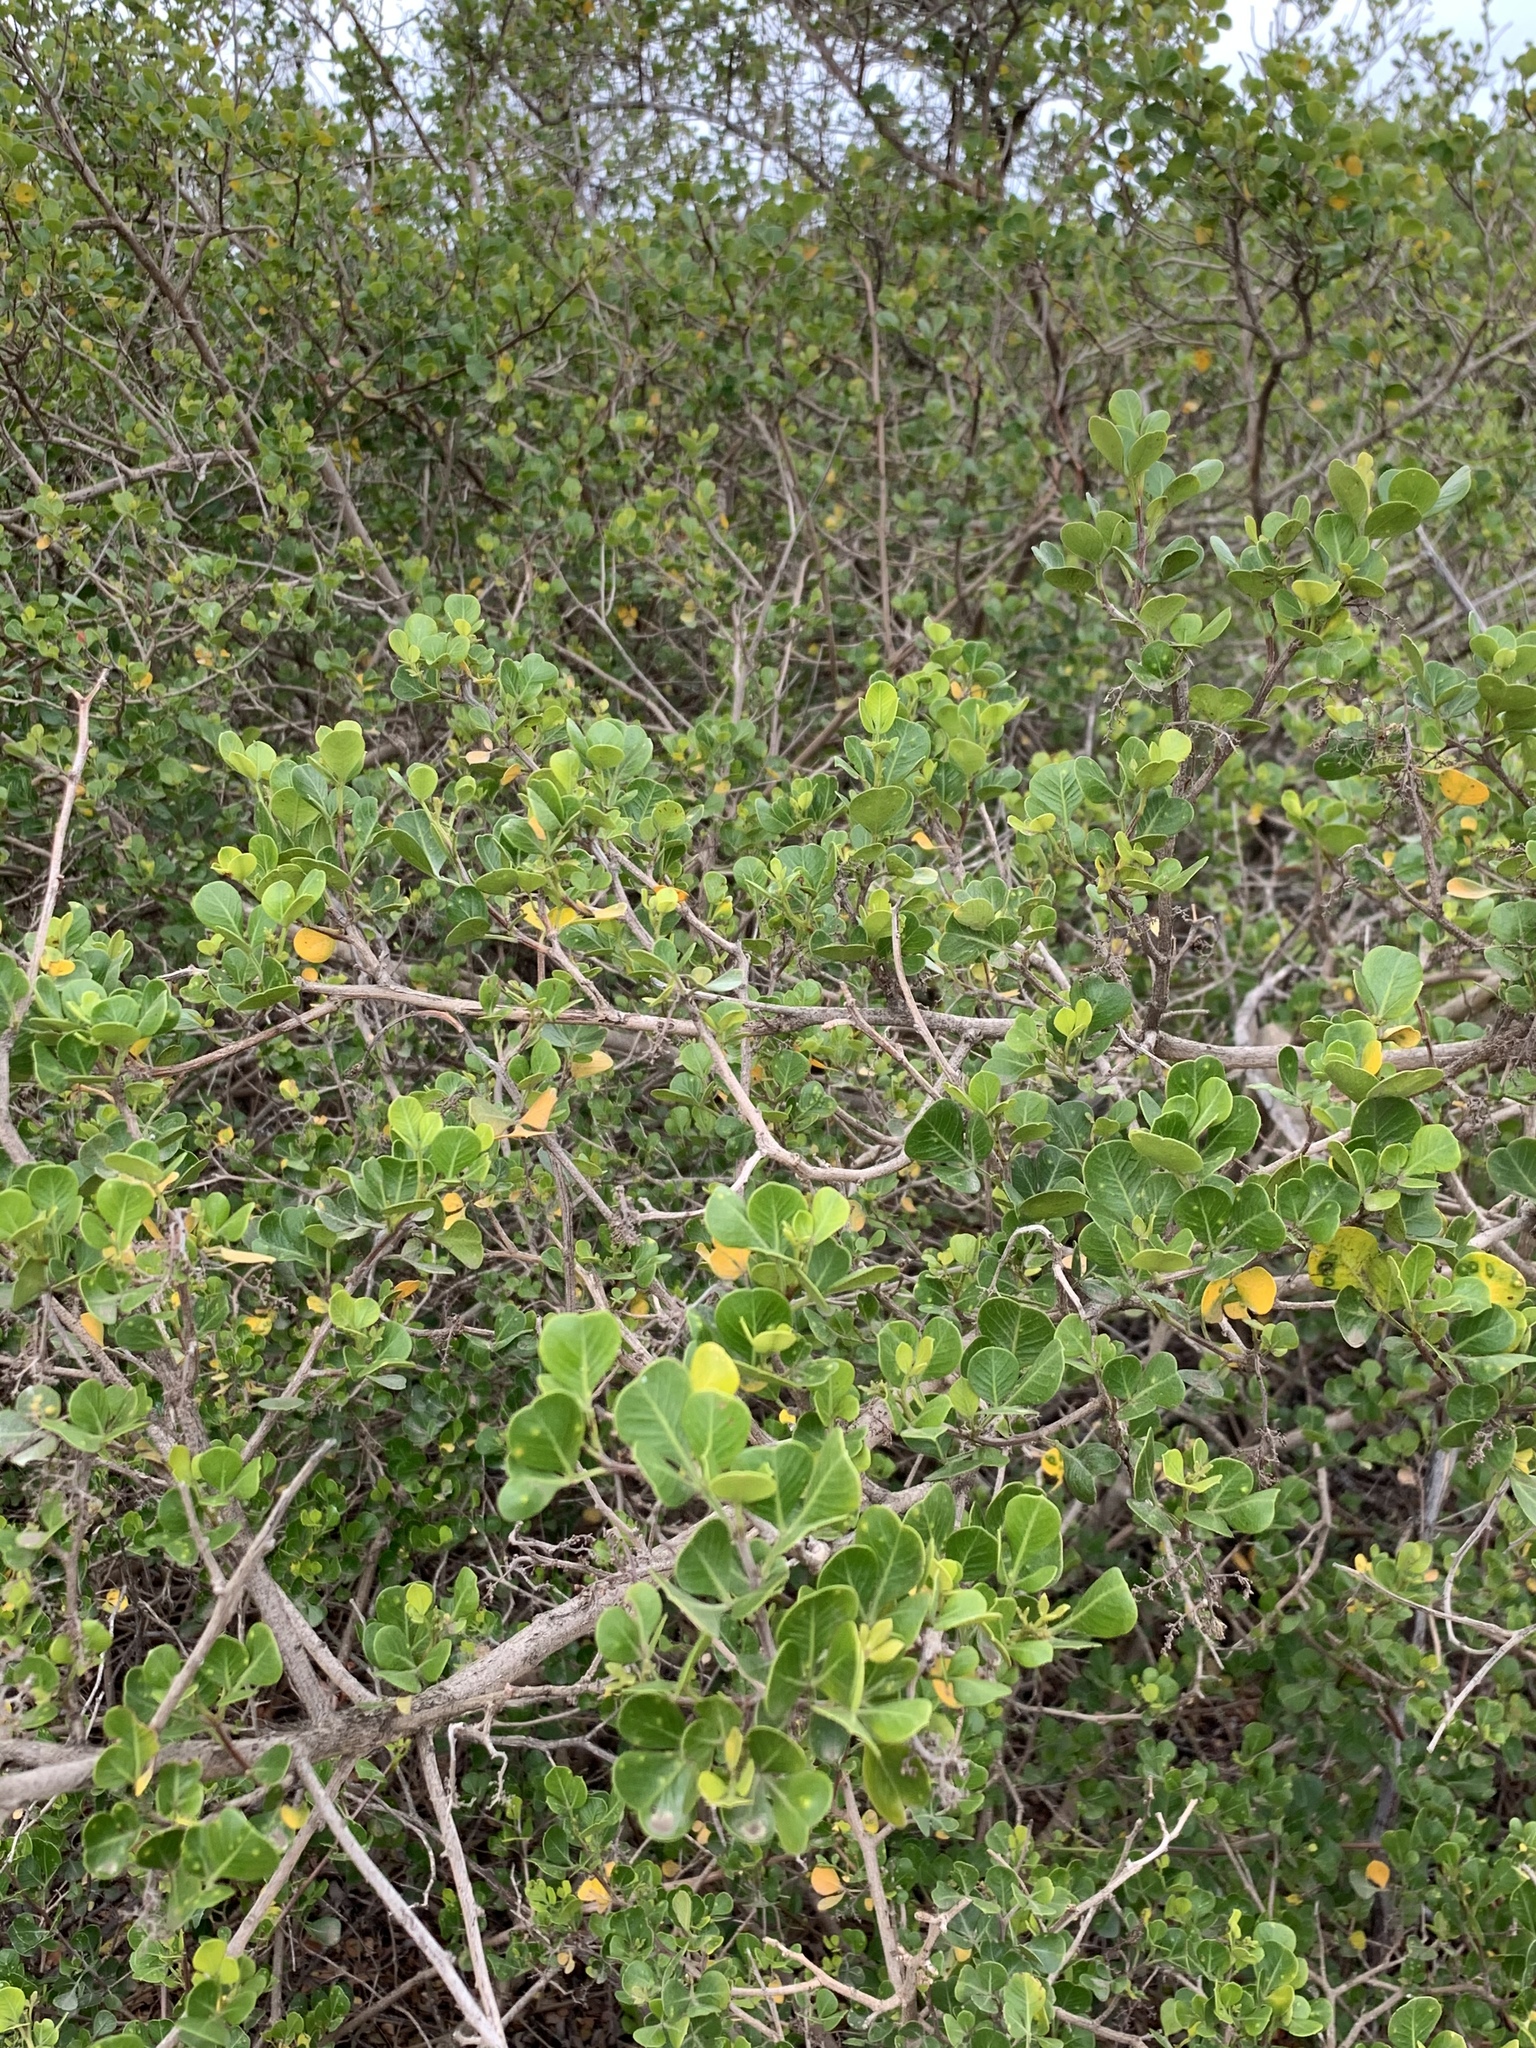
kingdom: Plantae
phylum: Tracheophyta
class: Magnoliopsida
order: Sapindales
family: Anacardiaceae
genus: Searsia
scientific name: Searsia glauca
